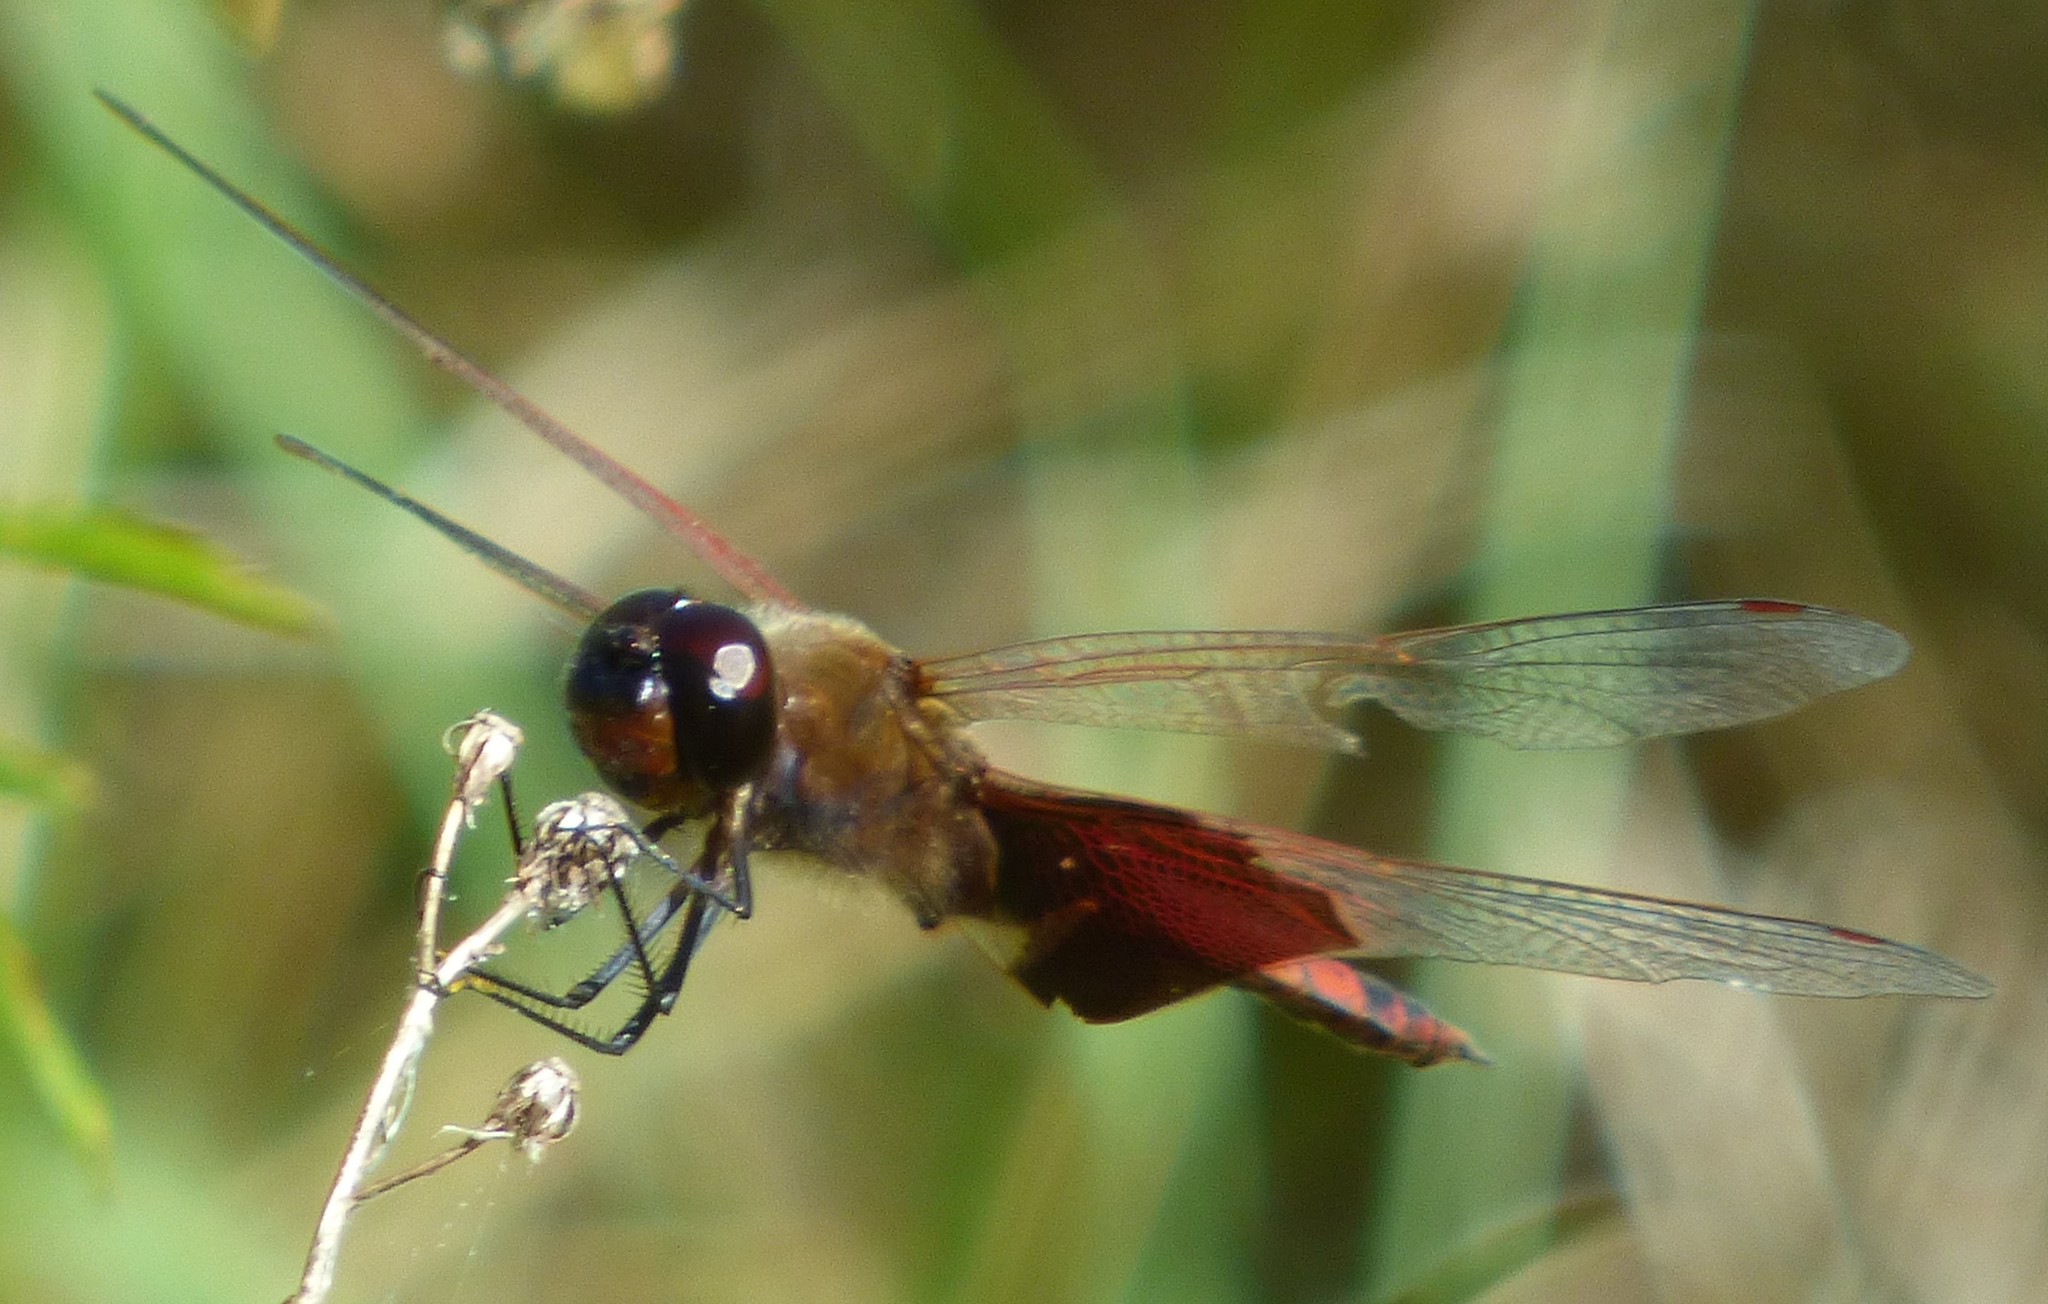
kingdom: Animalia
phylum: Arthropoda
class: Insecta
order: Odonata
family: Libellulidae
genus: Tramea
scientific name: Tramea carolina
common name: Carolina saddlebags
